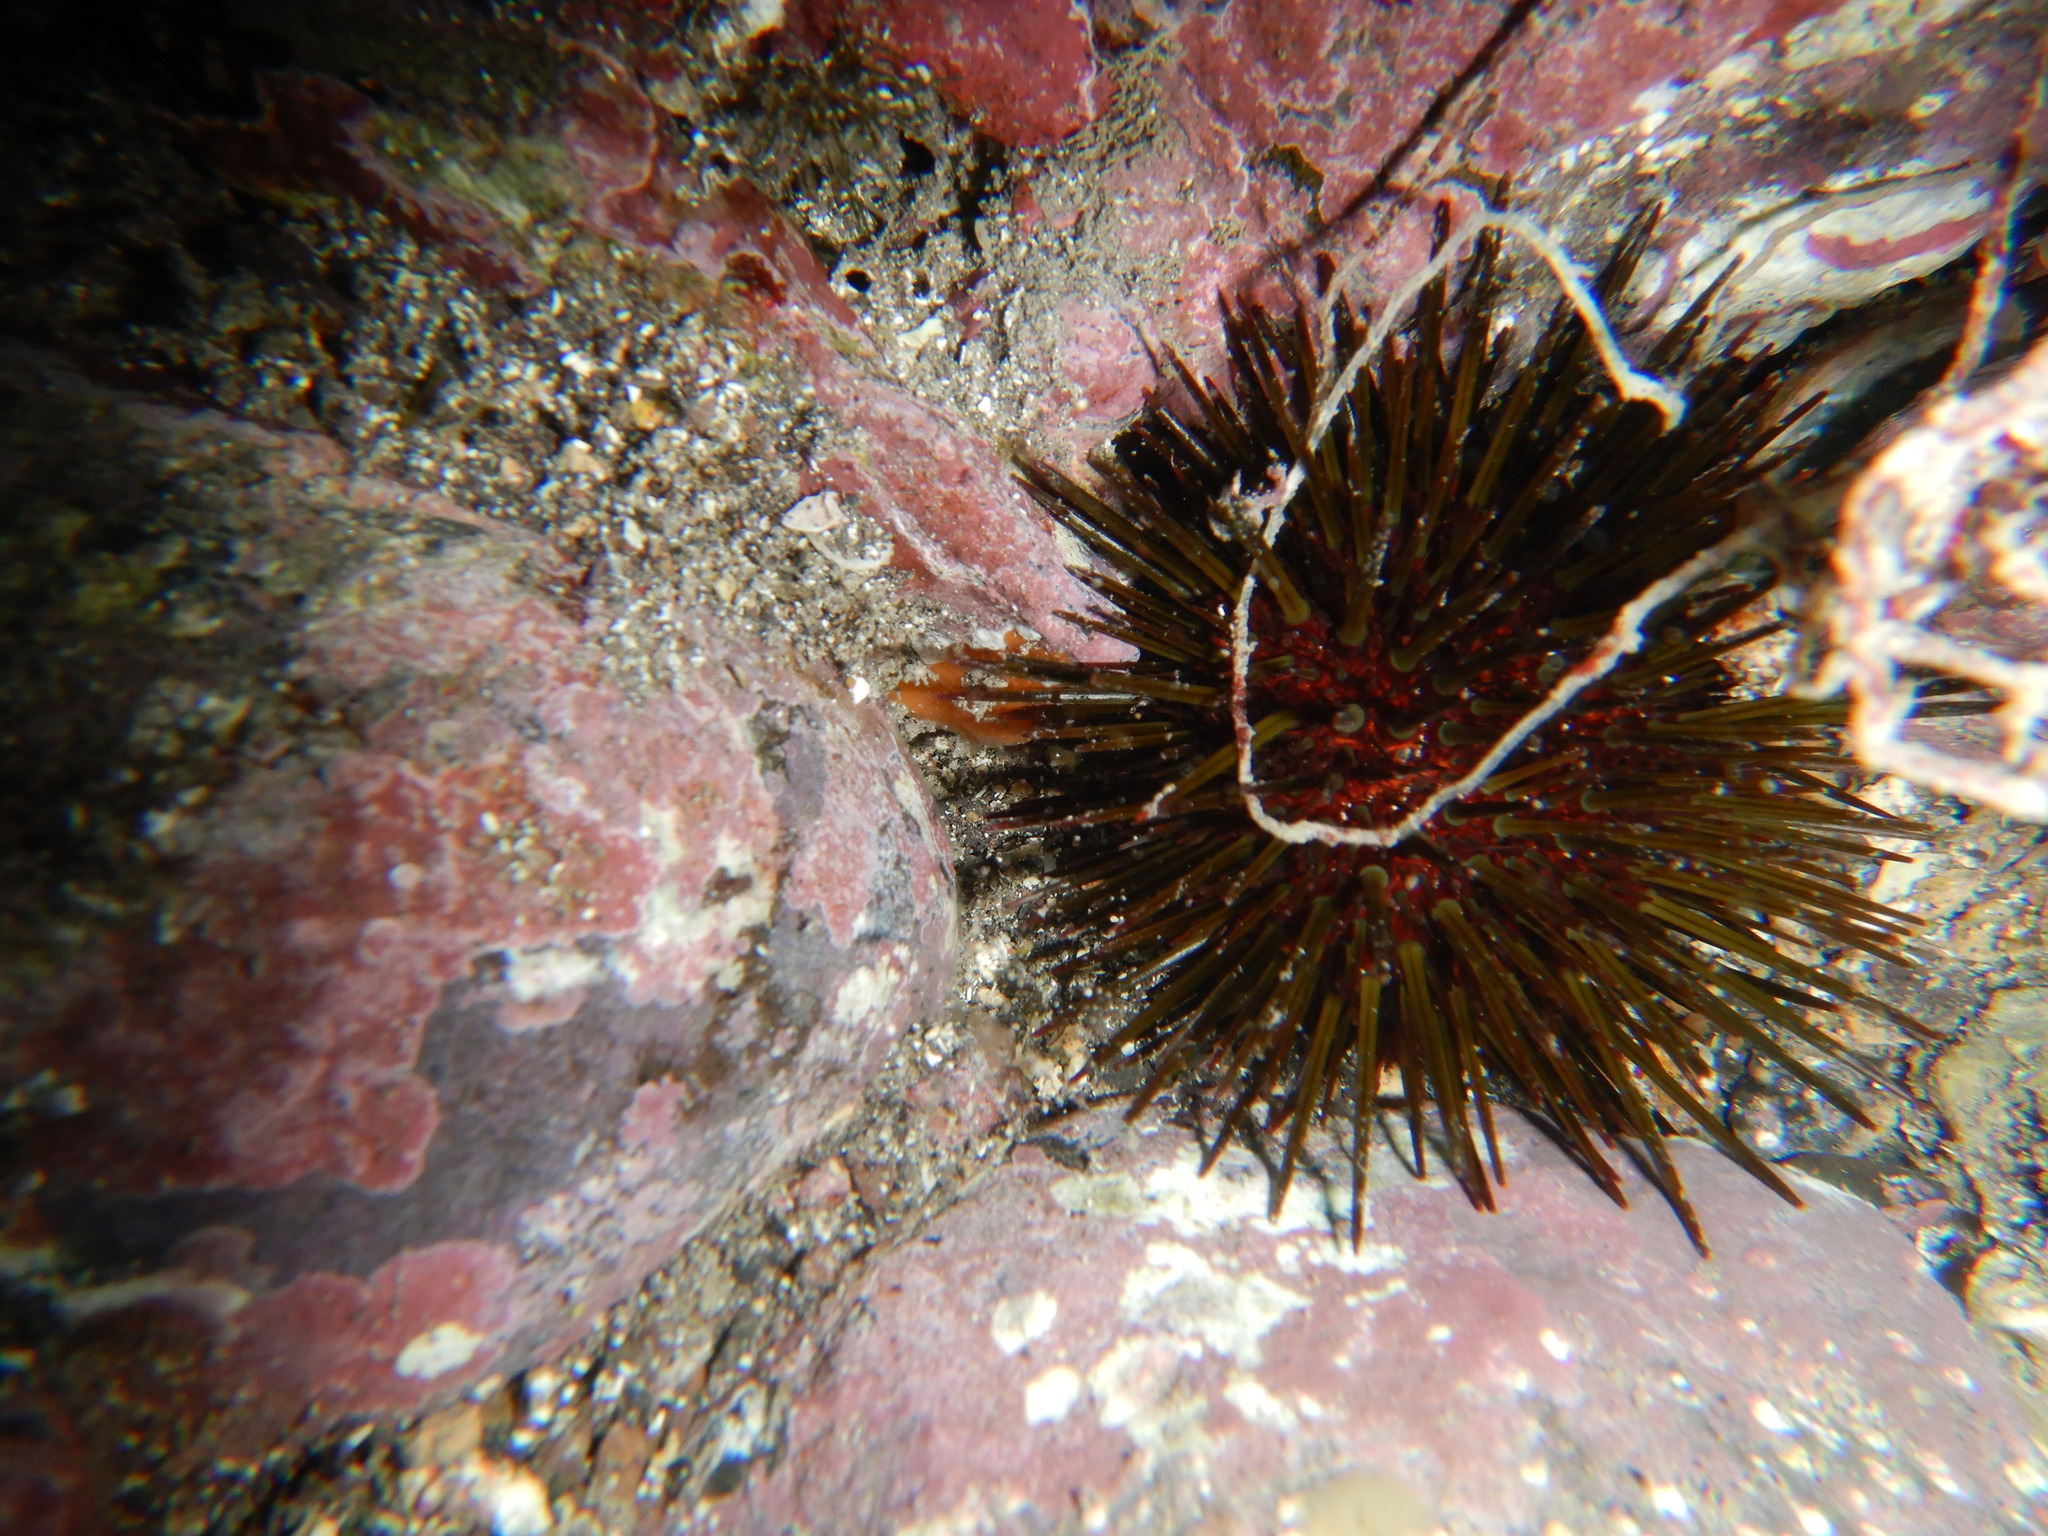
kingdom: Animalia
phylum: Echinodermata
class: Echinoidea
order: Camarodonta
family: Parechinidae
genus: Paracentrotus
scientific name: Paracentrotus lividus
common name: Purple sea urchin
